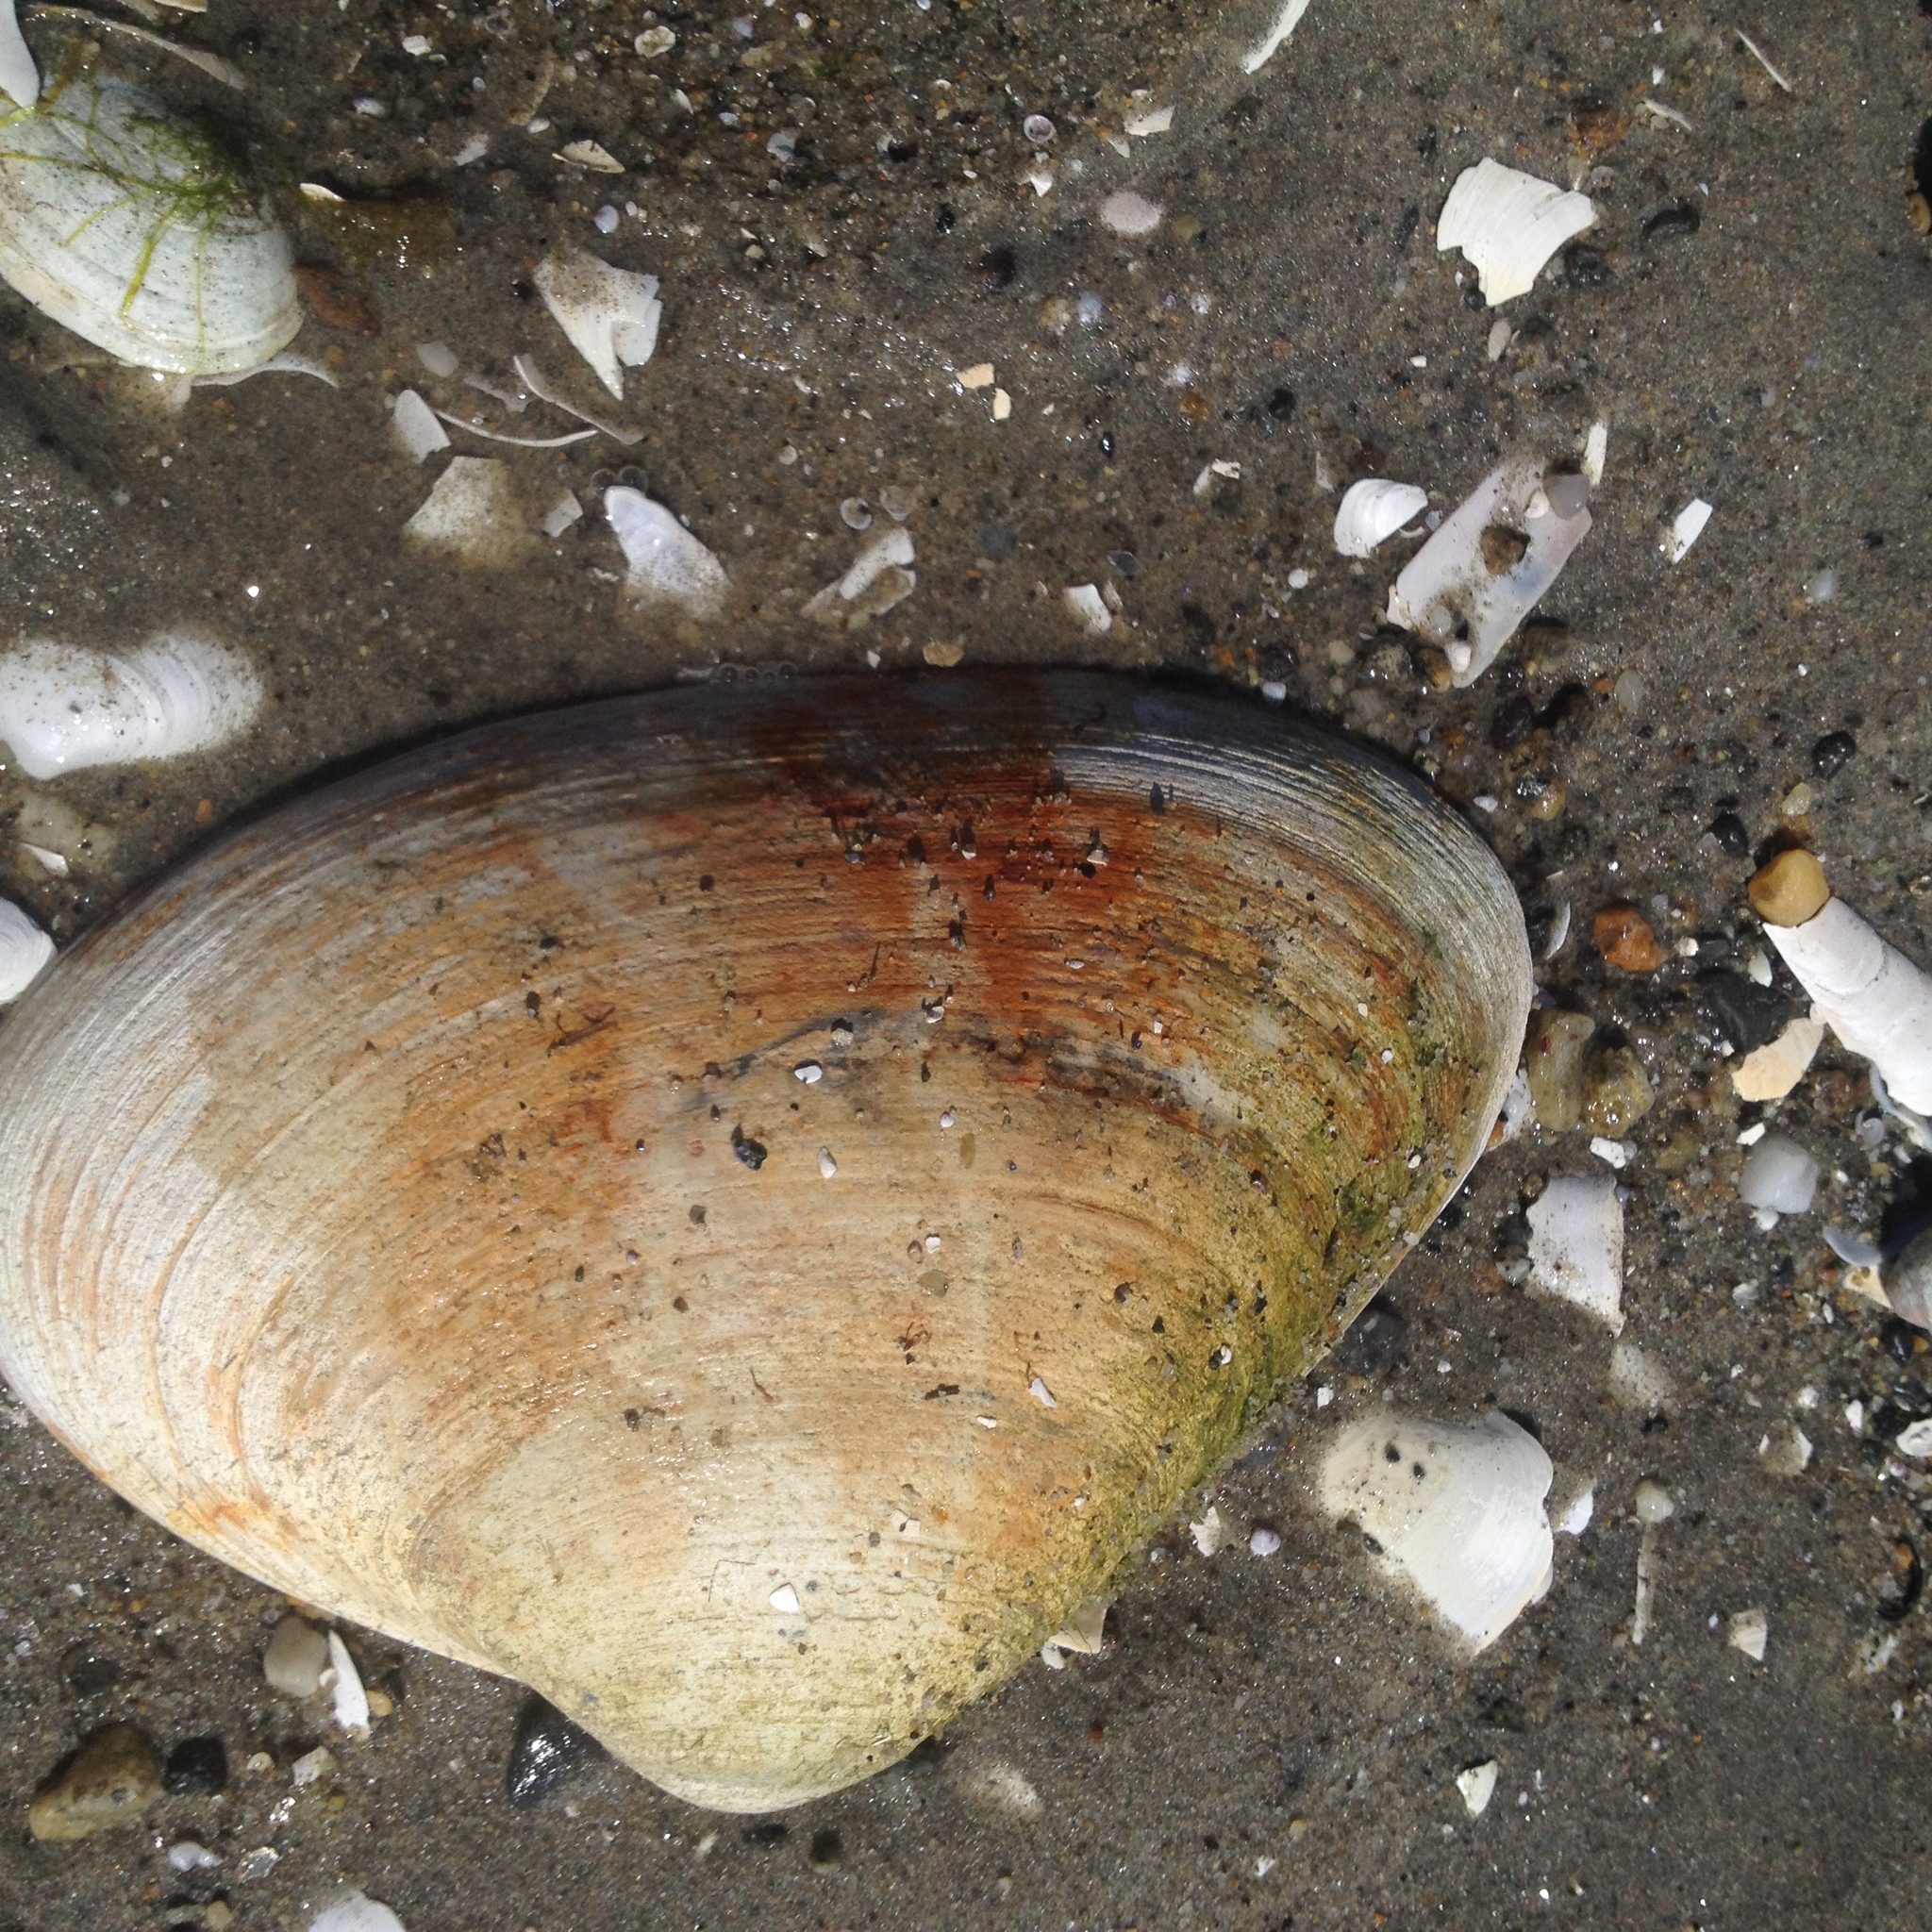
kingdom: Animalia
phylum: Mollusca
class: Bivalvia
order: Venerida
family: Mactridae
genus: Spisula
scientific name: Spisula solidissima
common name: Atlantic surf clam
